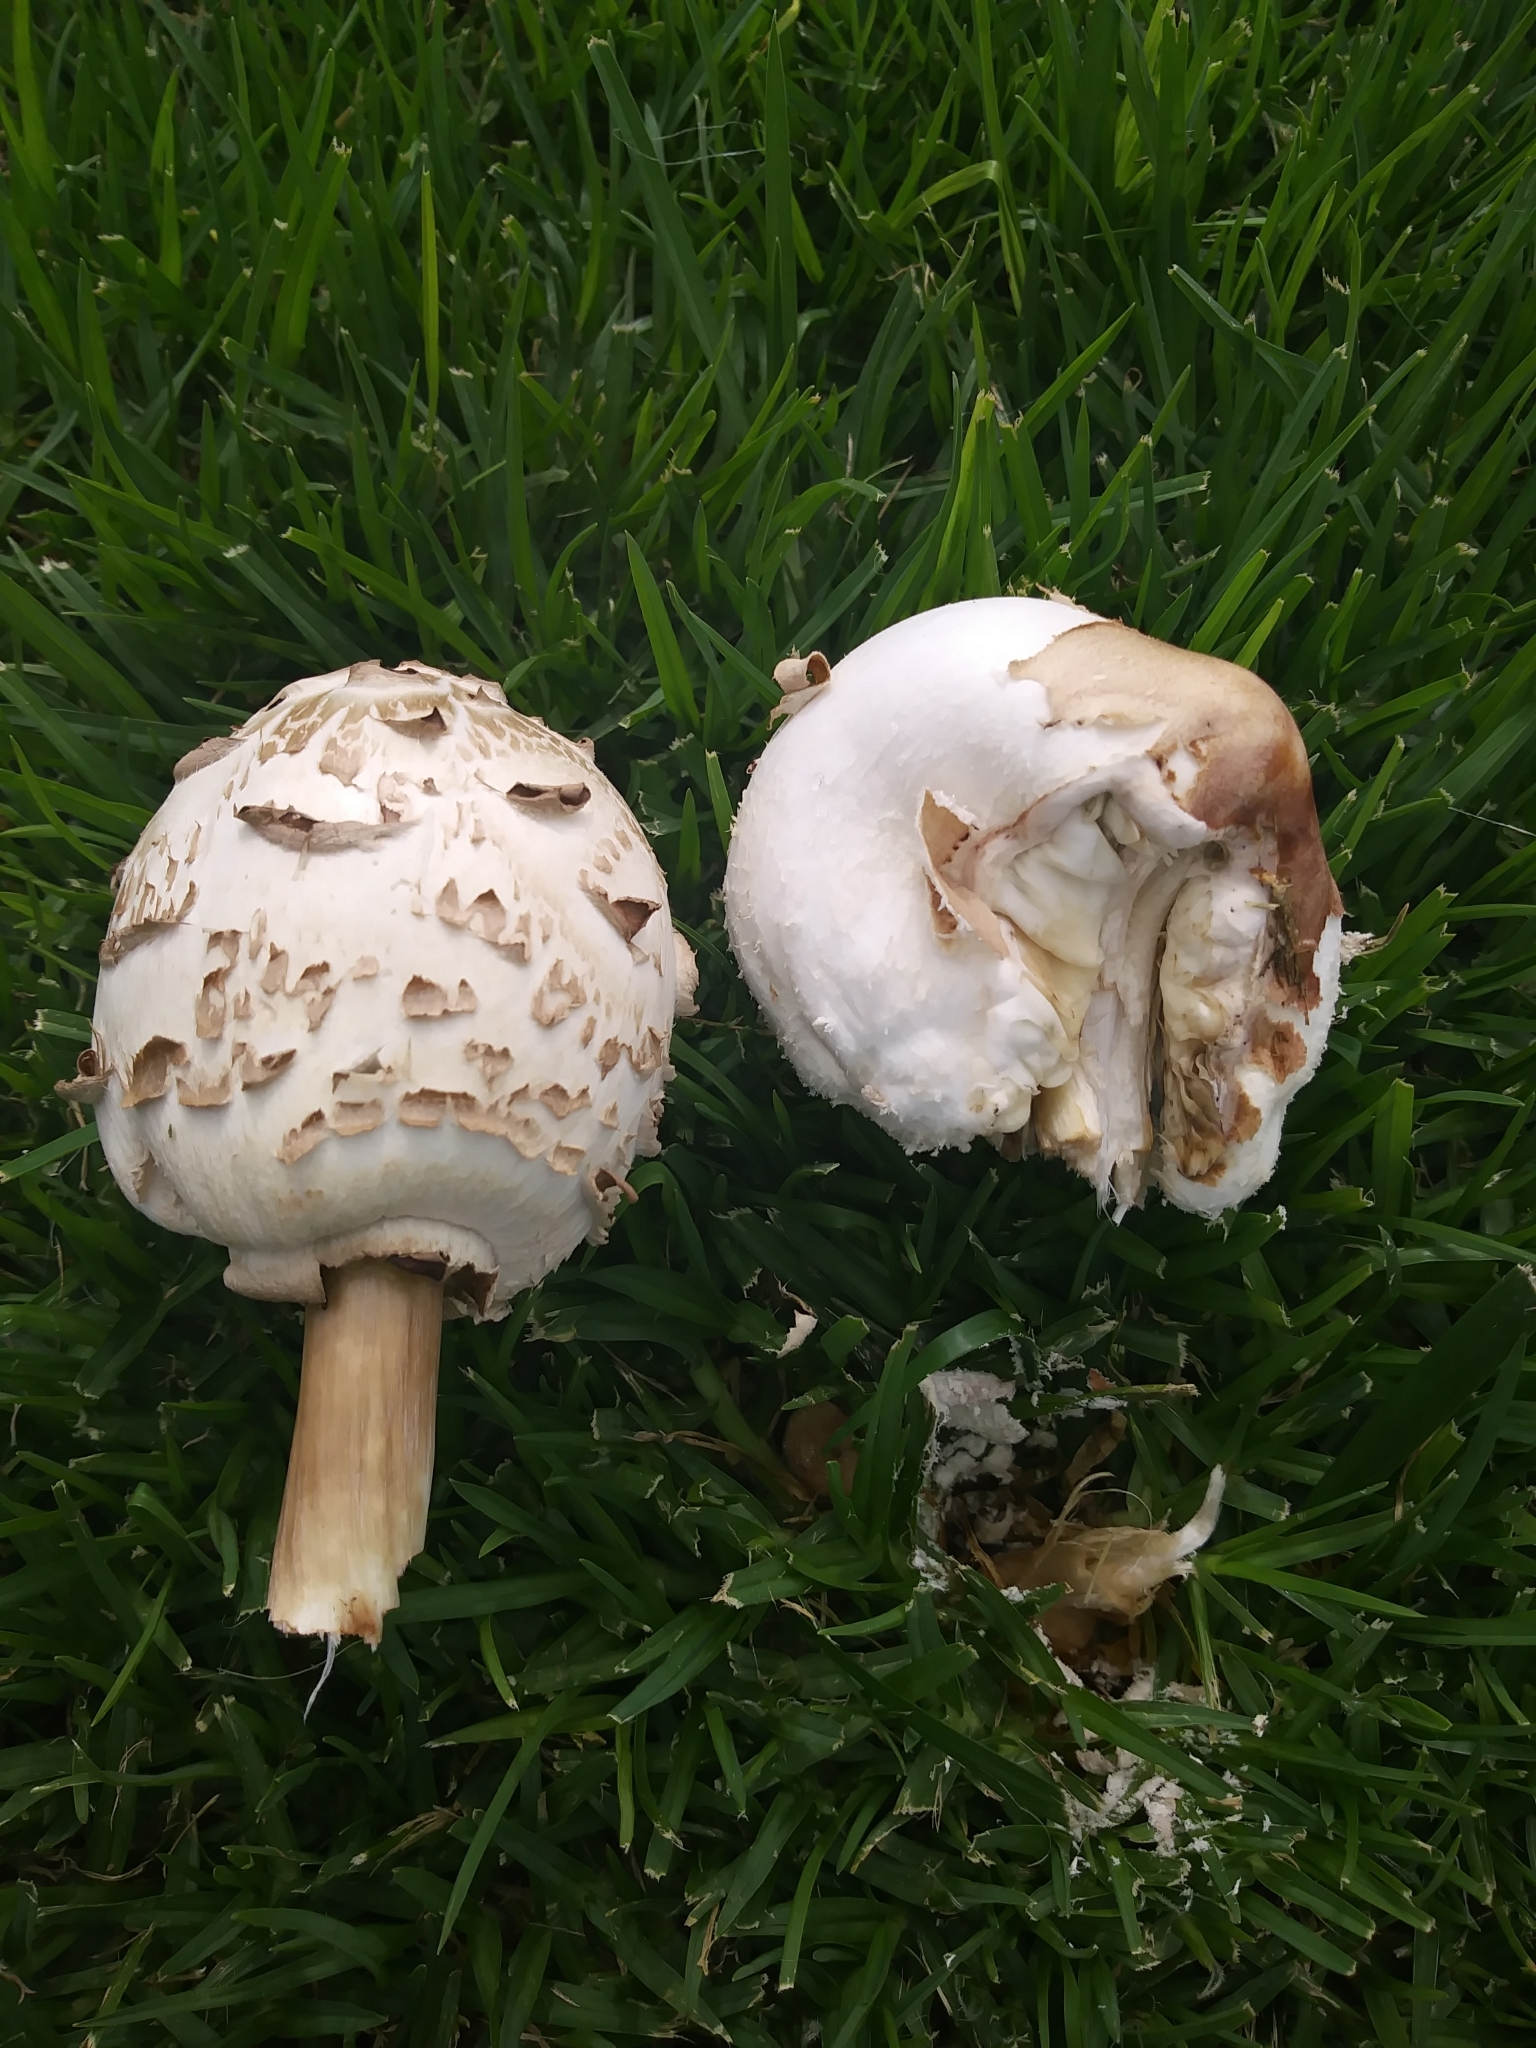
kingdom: Fungi
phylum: Basidiomycota
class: Agaricomycetes
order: Agaricales
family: Agaricaceae
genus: Chlorophyllum
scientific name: Chlorophyllum molybdites
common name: False parasol
